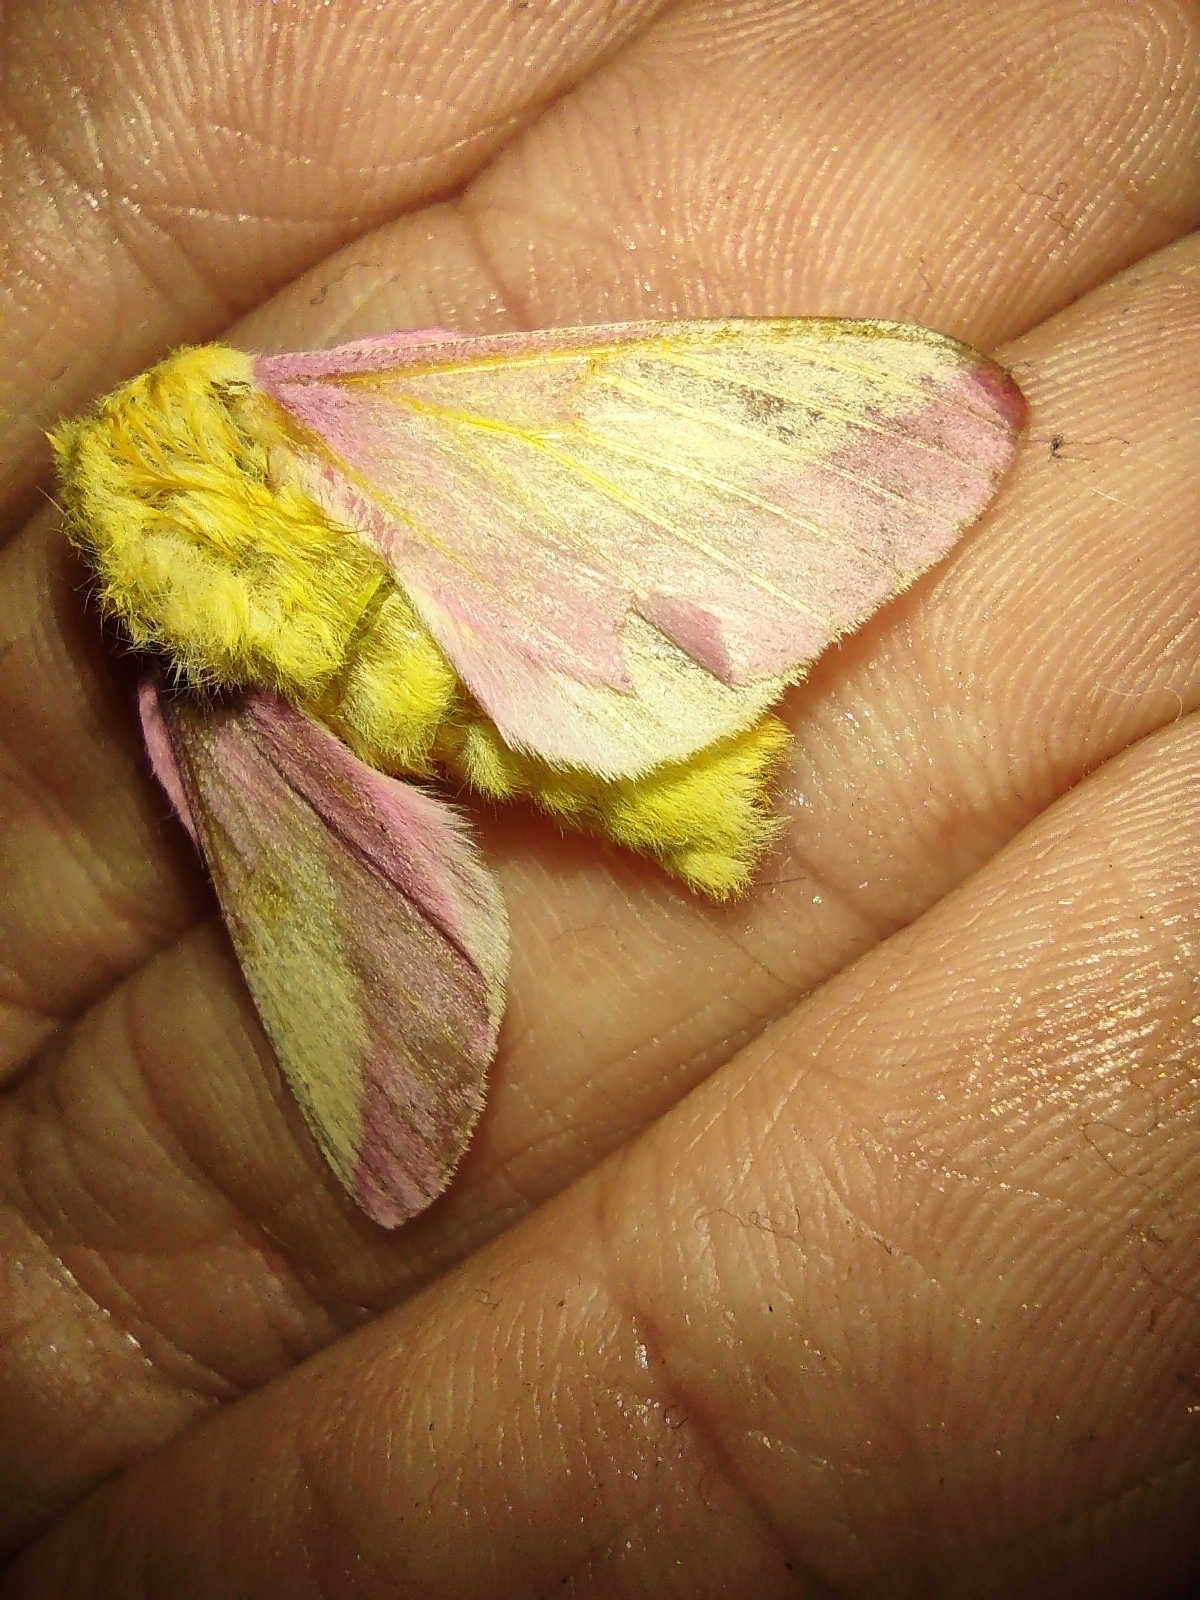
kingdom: Animalia
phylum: Arthropoda
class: Insecta
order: Lepidoptera
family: Saturniidae
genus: Dryocampa
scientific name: Dryocampa rubicunda
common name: Rosy maple moth
